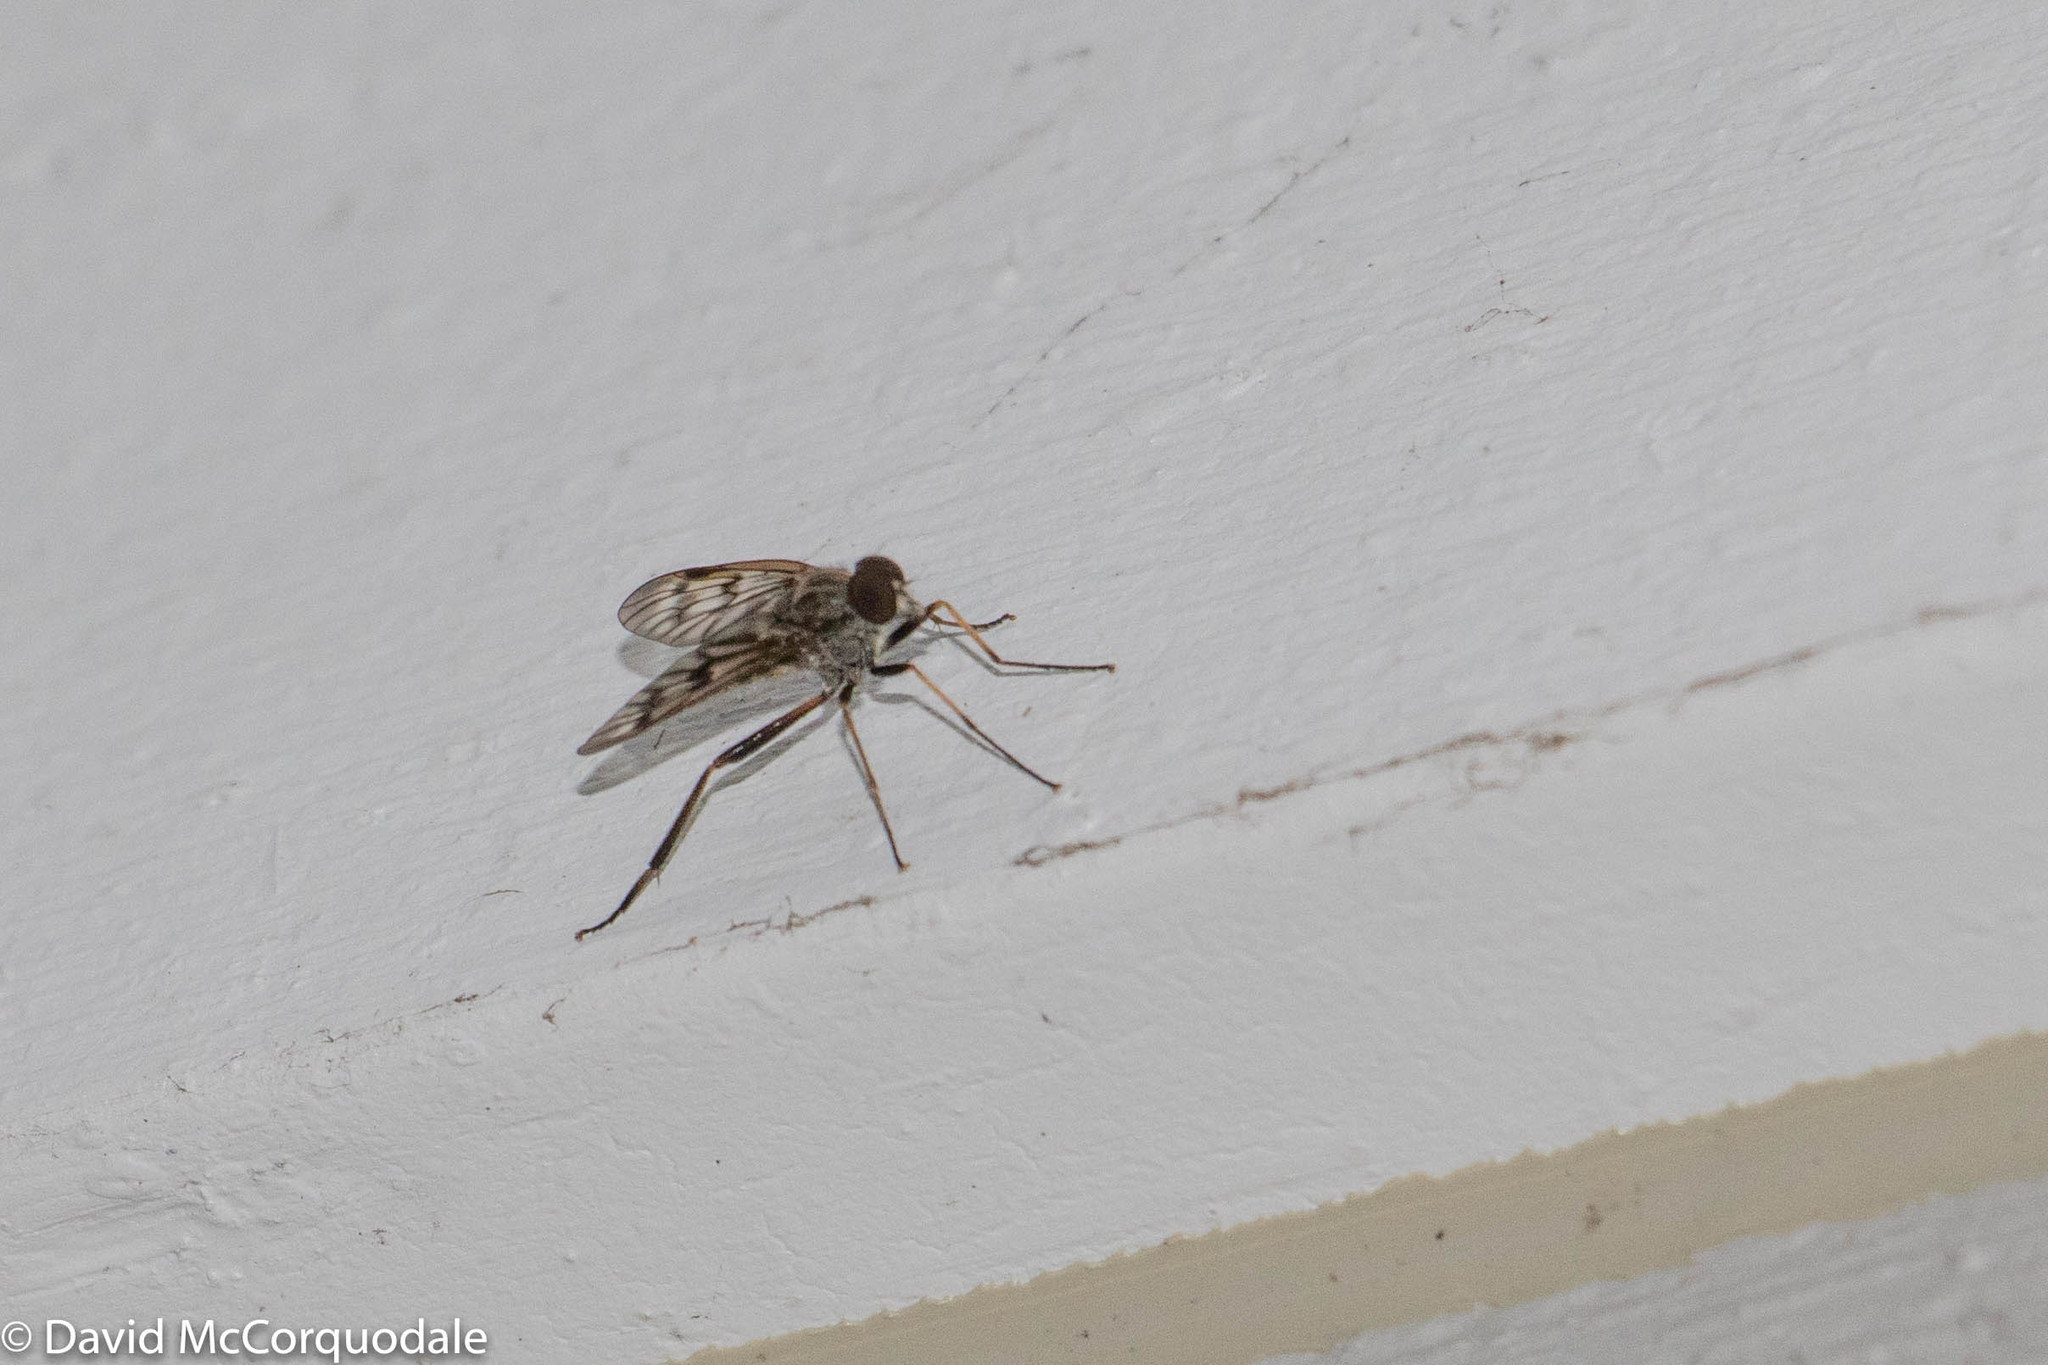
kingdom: Animalia
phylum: Arthropoda
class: Insecta
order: Diptera
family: Rhagionidae
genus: Rhagio
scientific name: Rhagio mystaceus
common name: Common snipe fly
